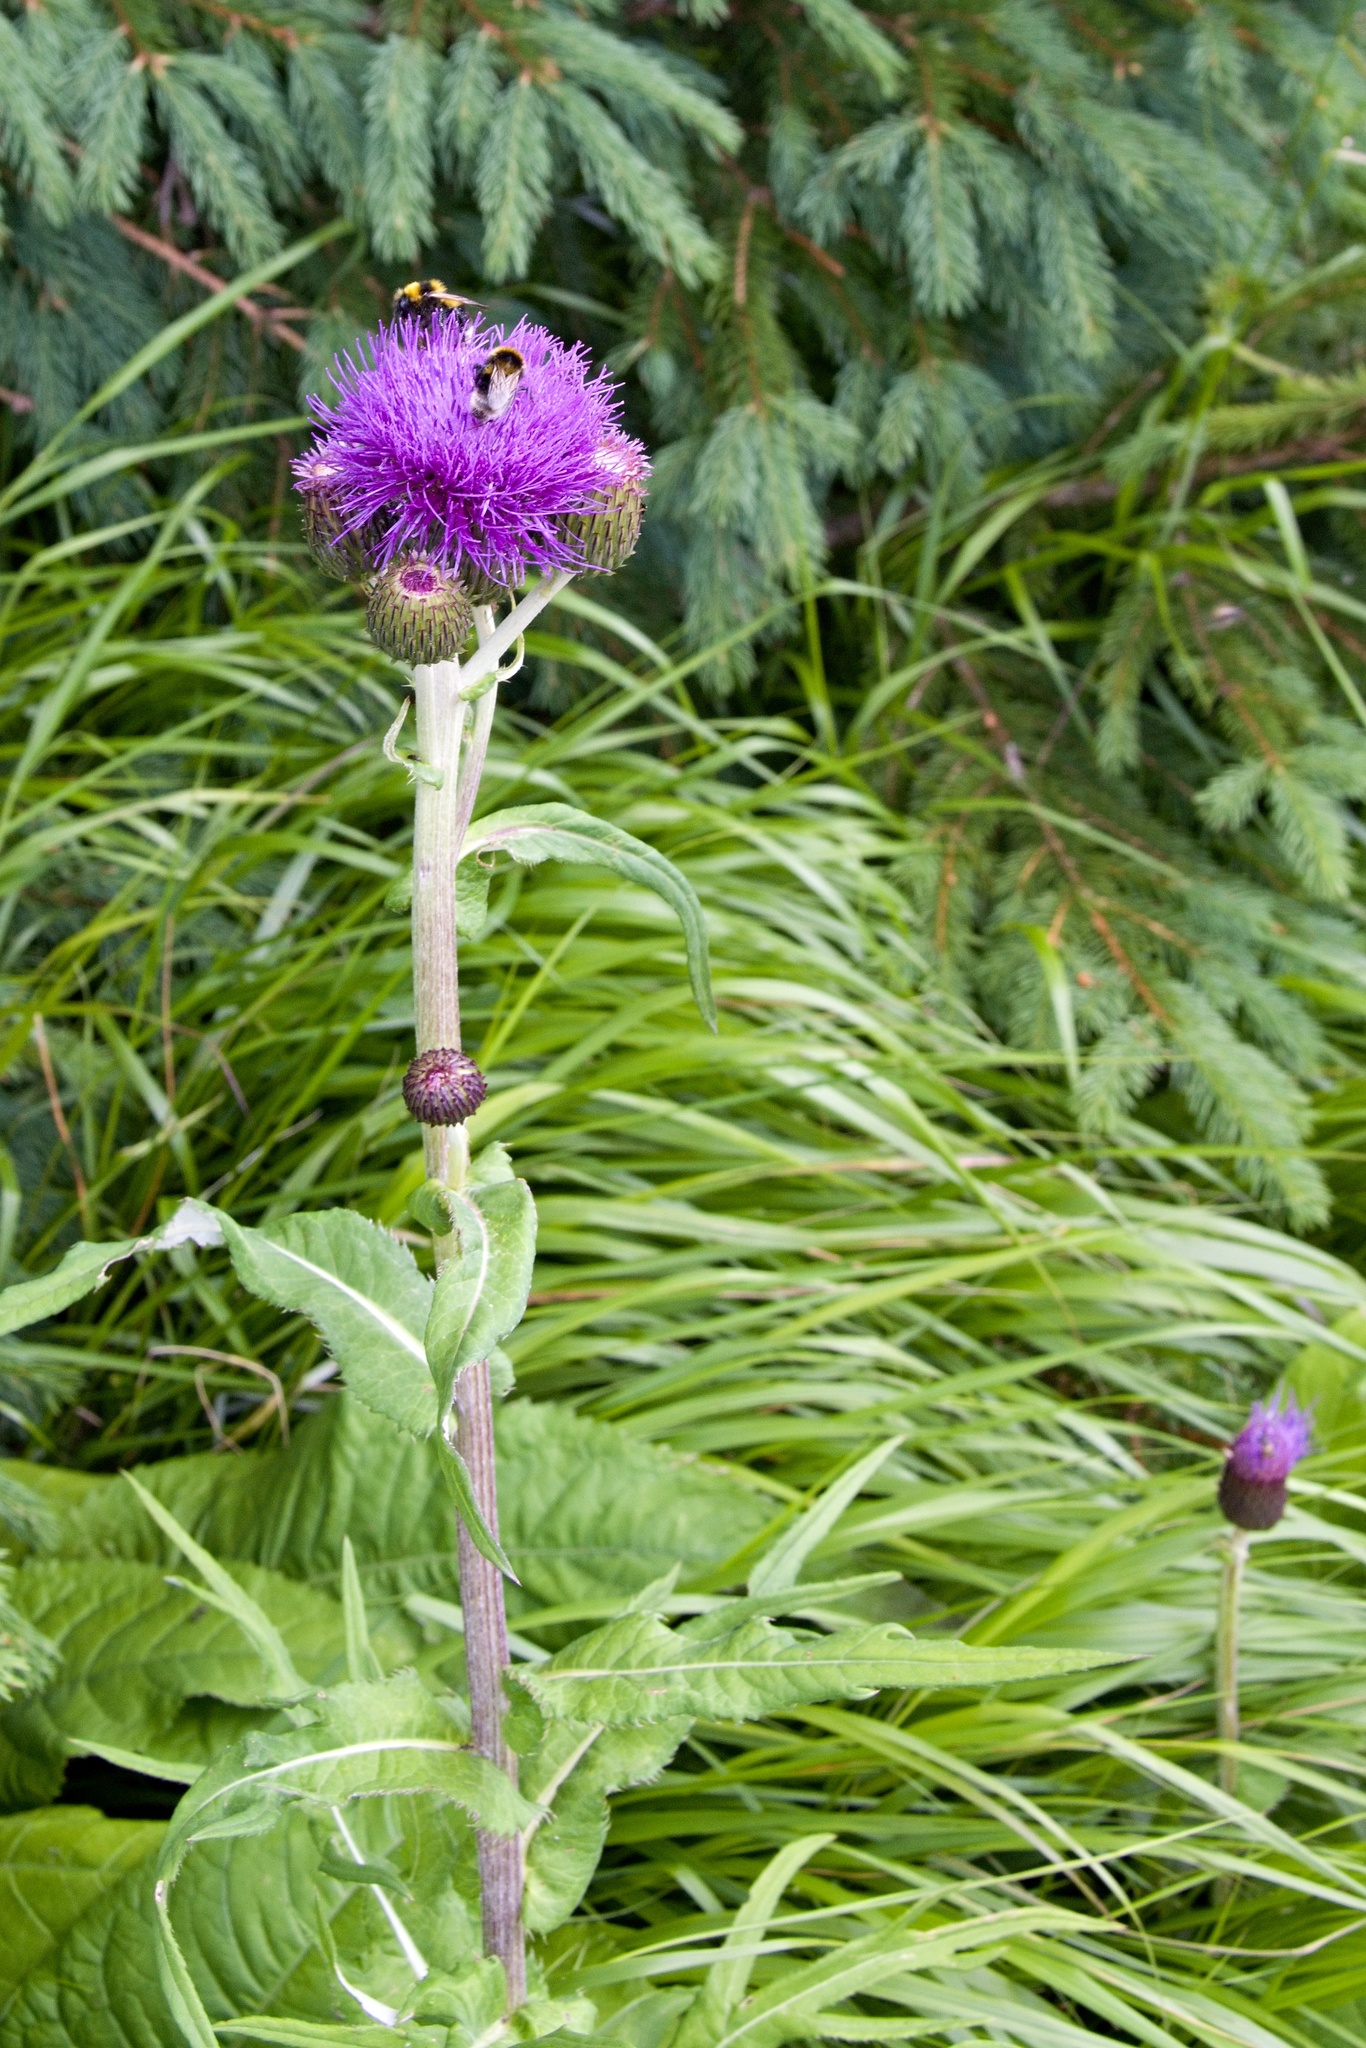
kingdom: Plantae
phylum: Tracheophyta
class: Magnoliopsida
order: Asterales
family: Asteraceae
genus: Cirsium
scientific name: Cirsium heterophyllum
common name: Melancholy thistle
